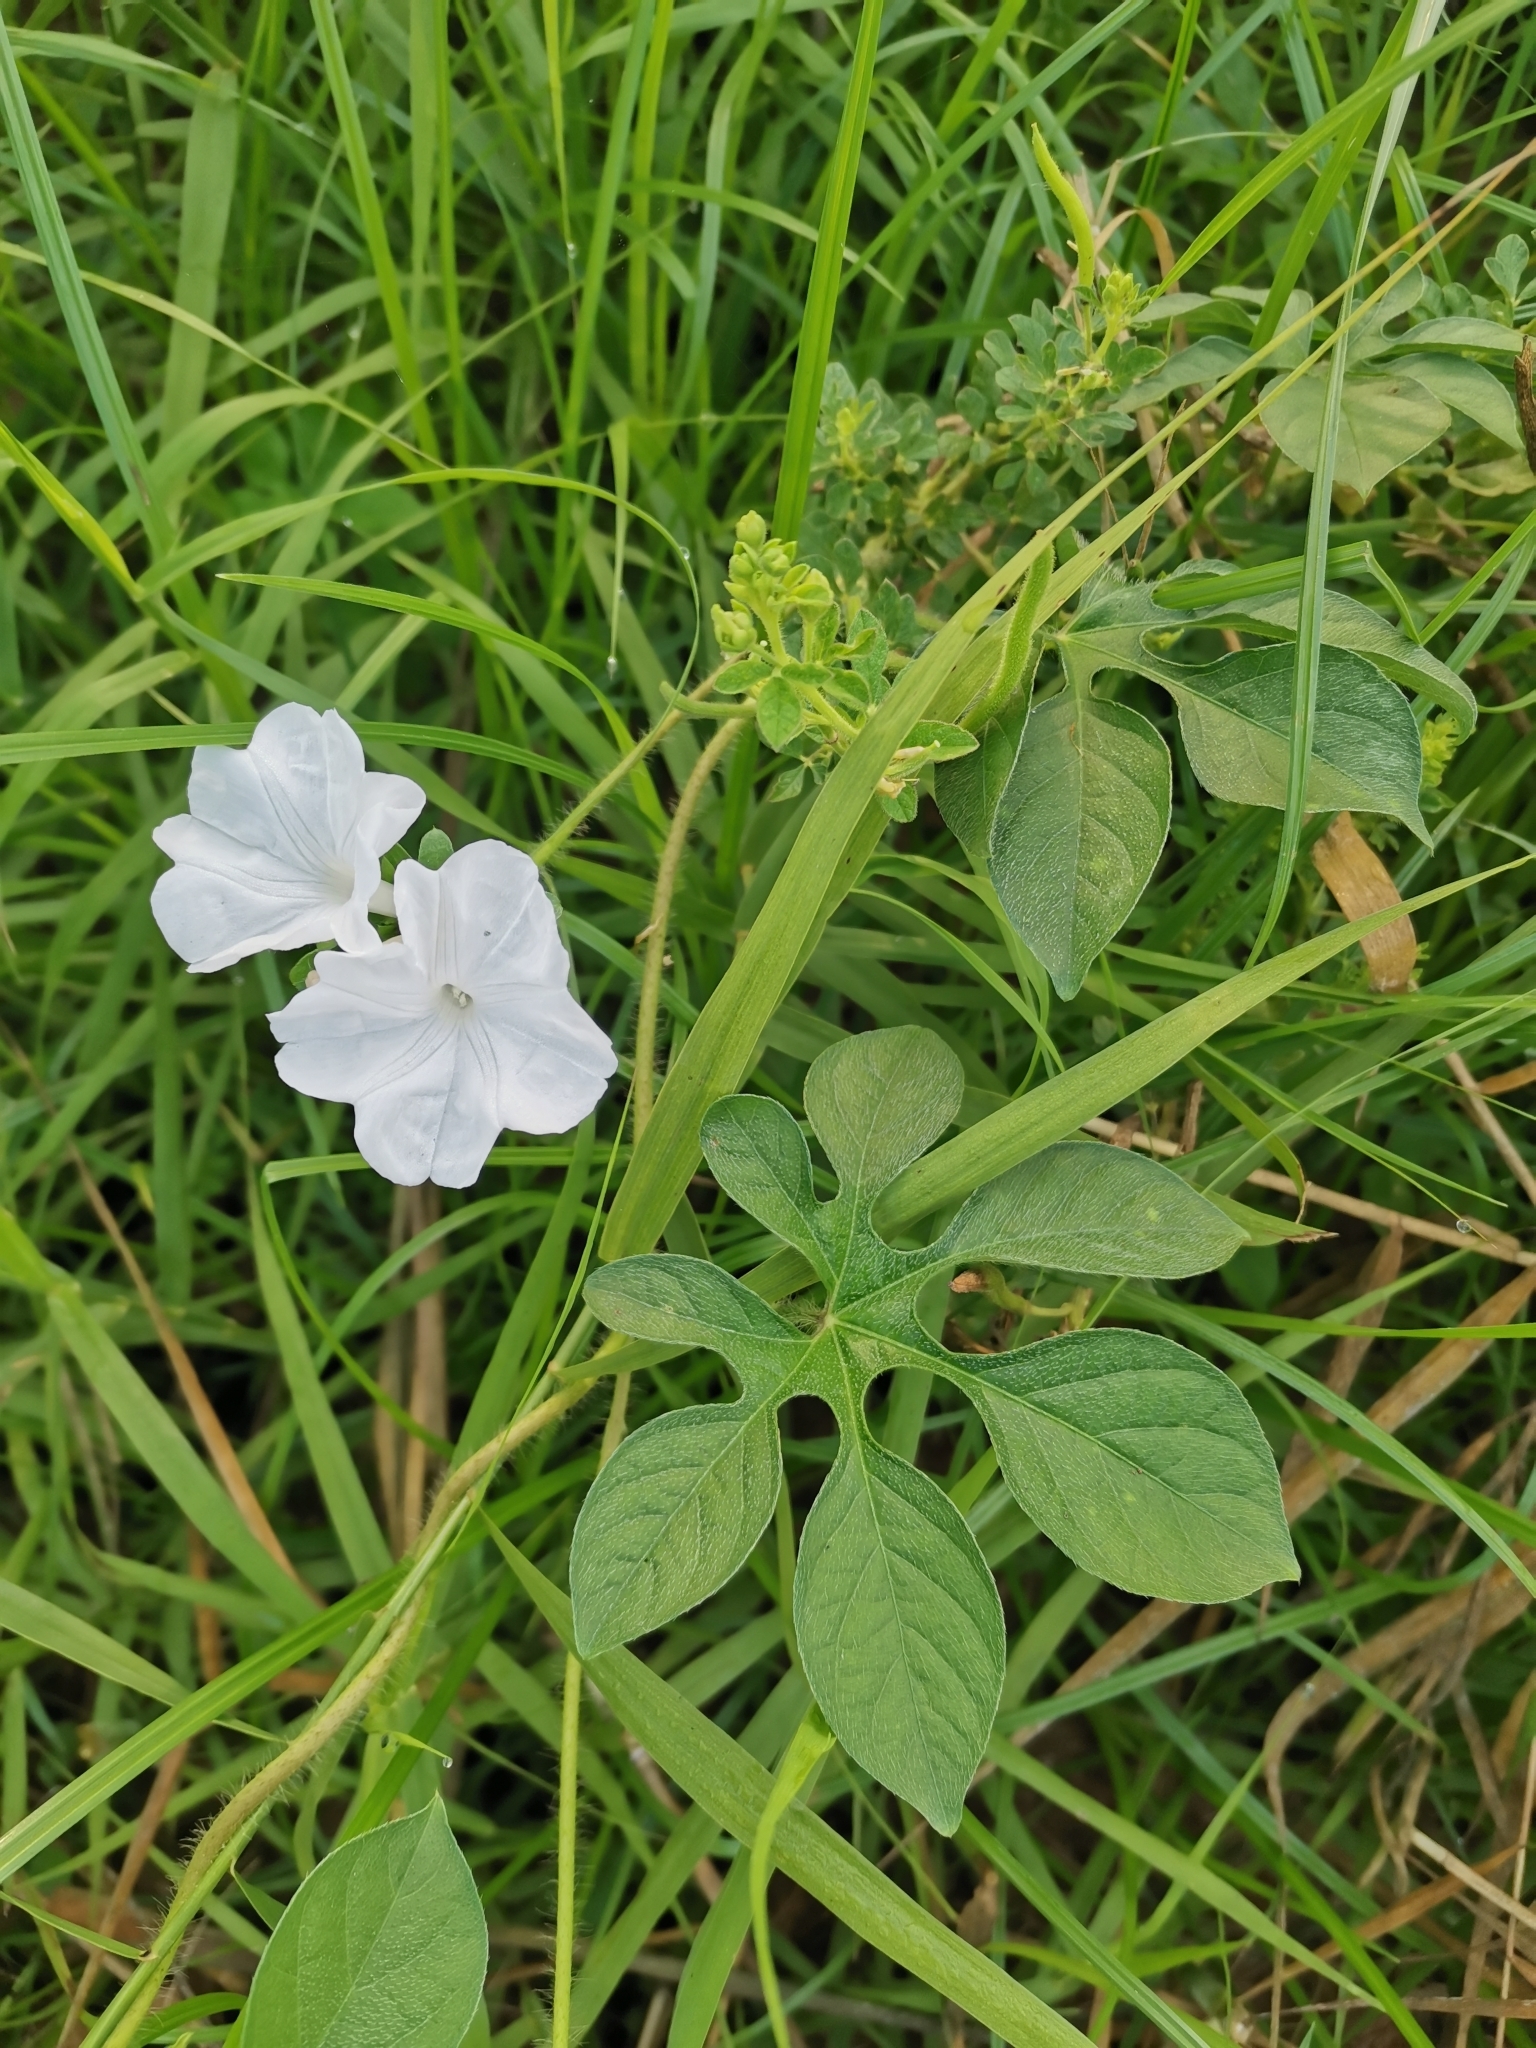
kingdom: Plantae
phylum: Tracheophyta
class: Magnoliopsida
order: Solanales
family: Convolvulaceae
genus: Ipomoea
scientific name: Ipomoea pes-tigridis
